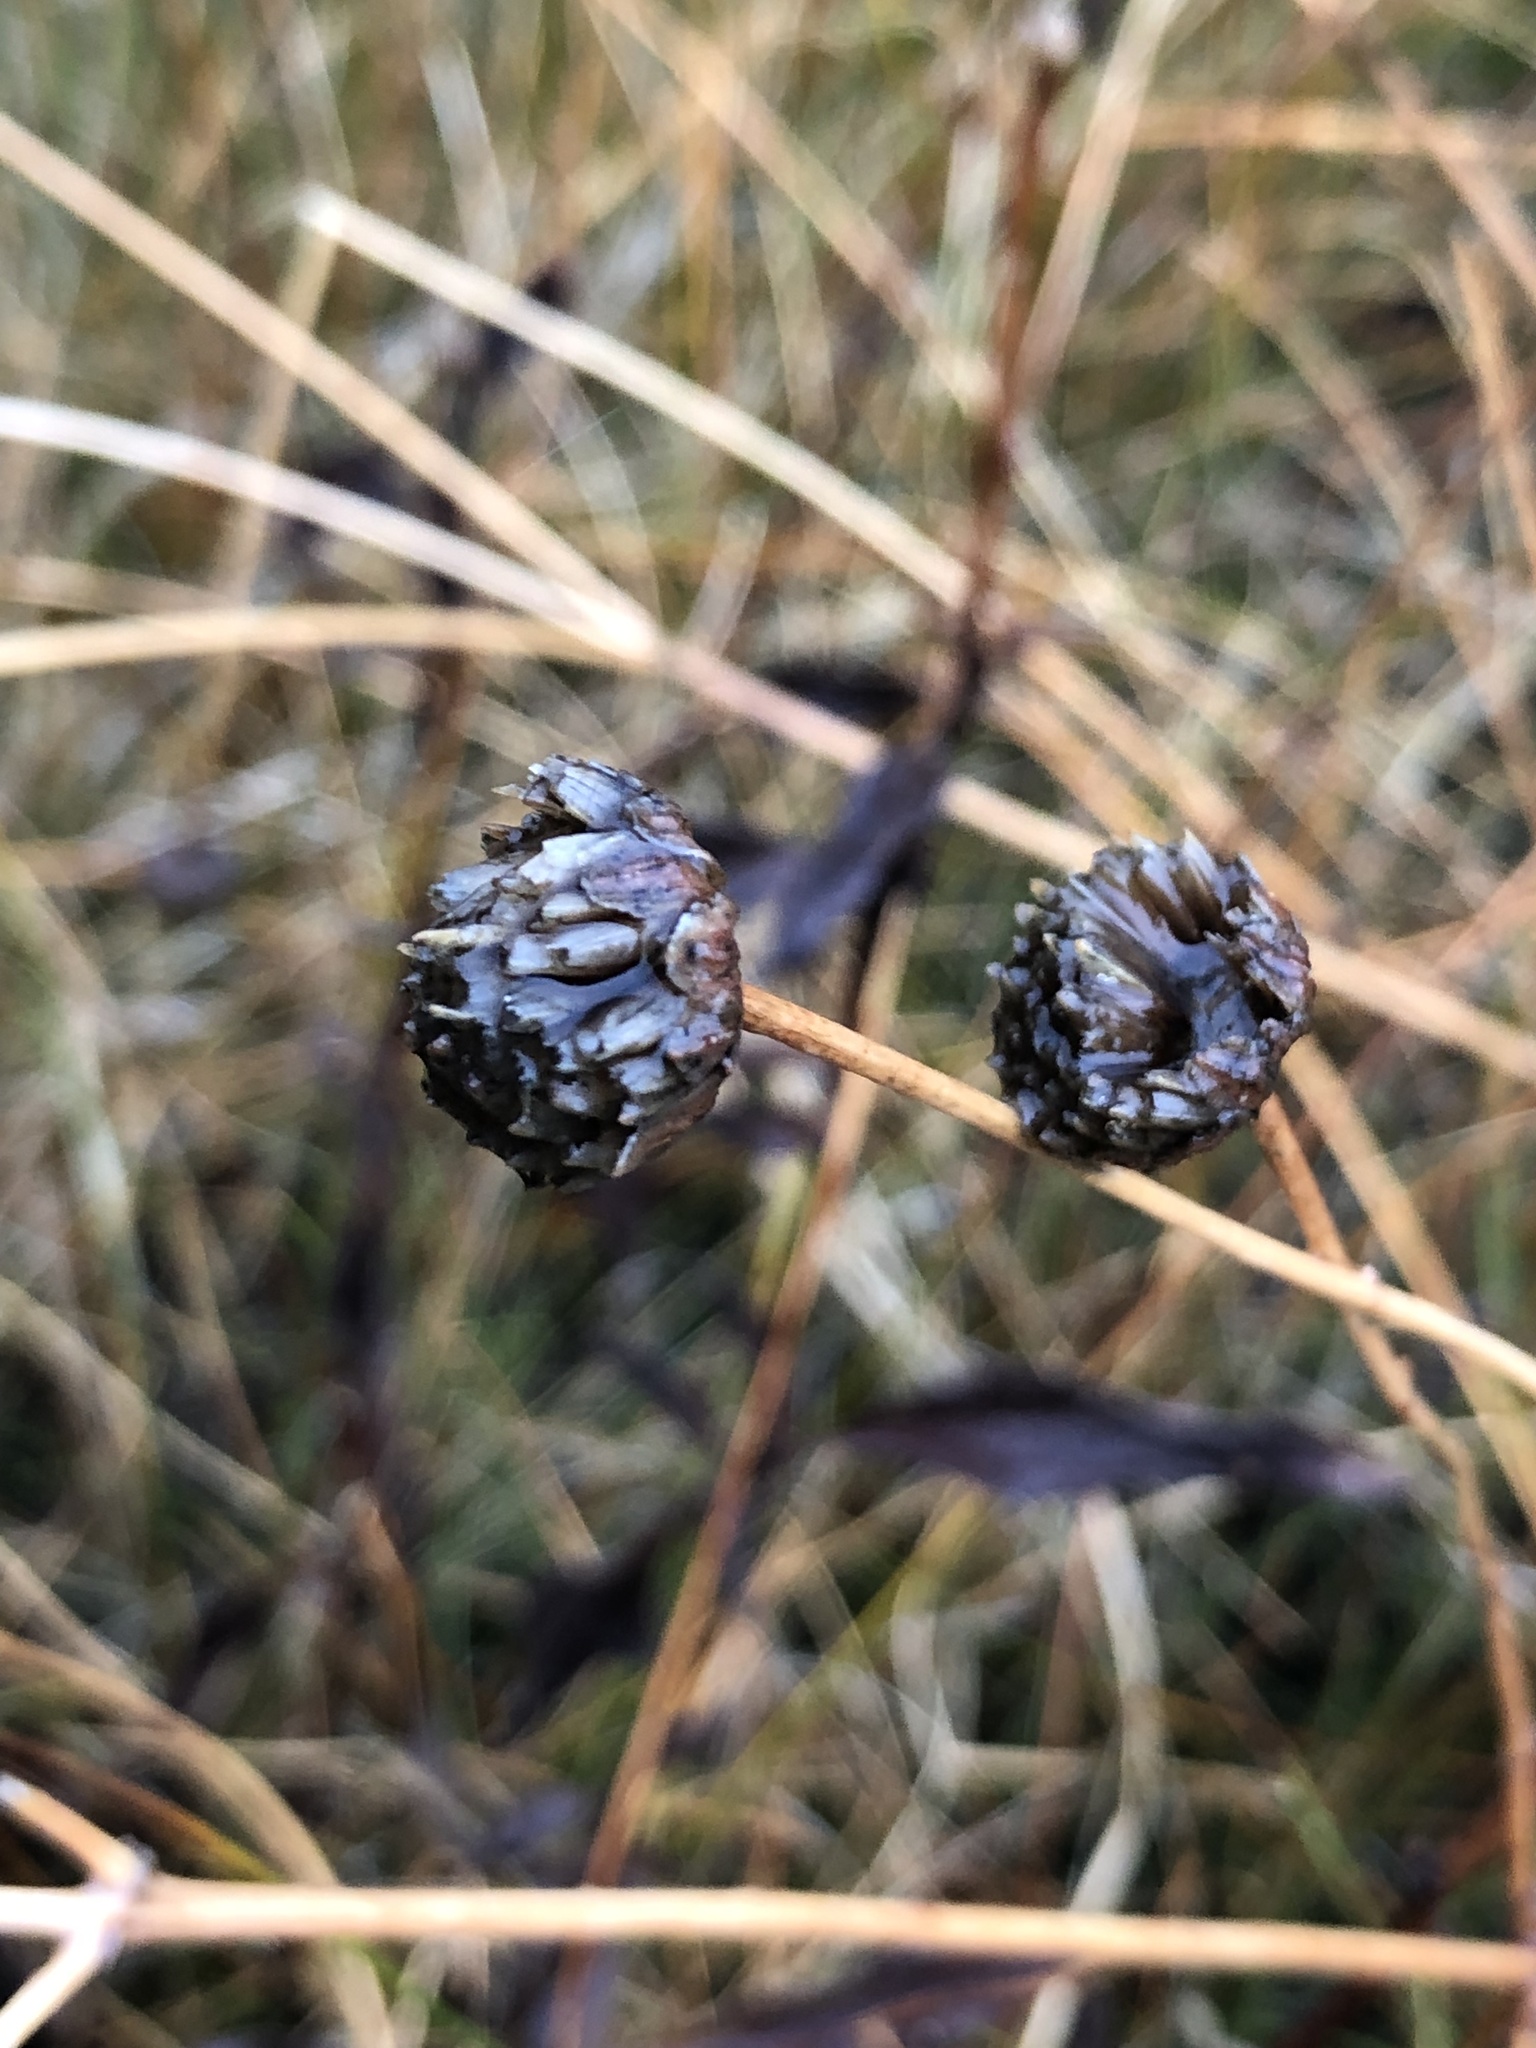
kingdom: Plantae
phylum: Tracheophyta
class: Magnoliopsida
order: Asterales
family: Asteraceae
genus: Helianthus
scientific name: Helianthus gracilentus
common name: Slender sunflower
